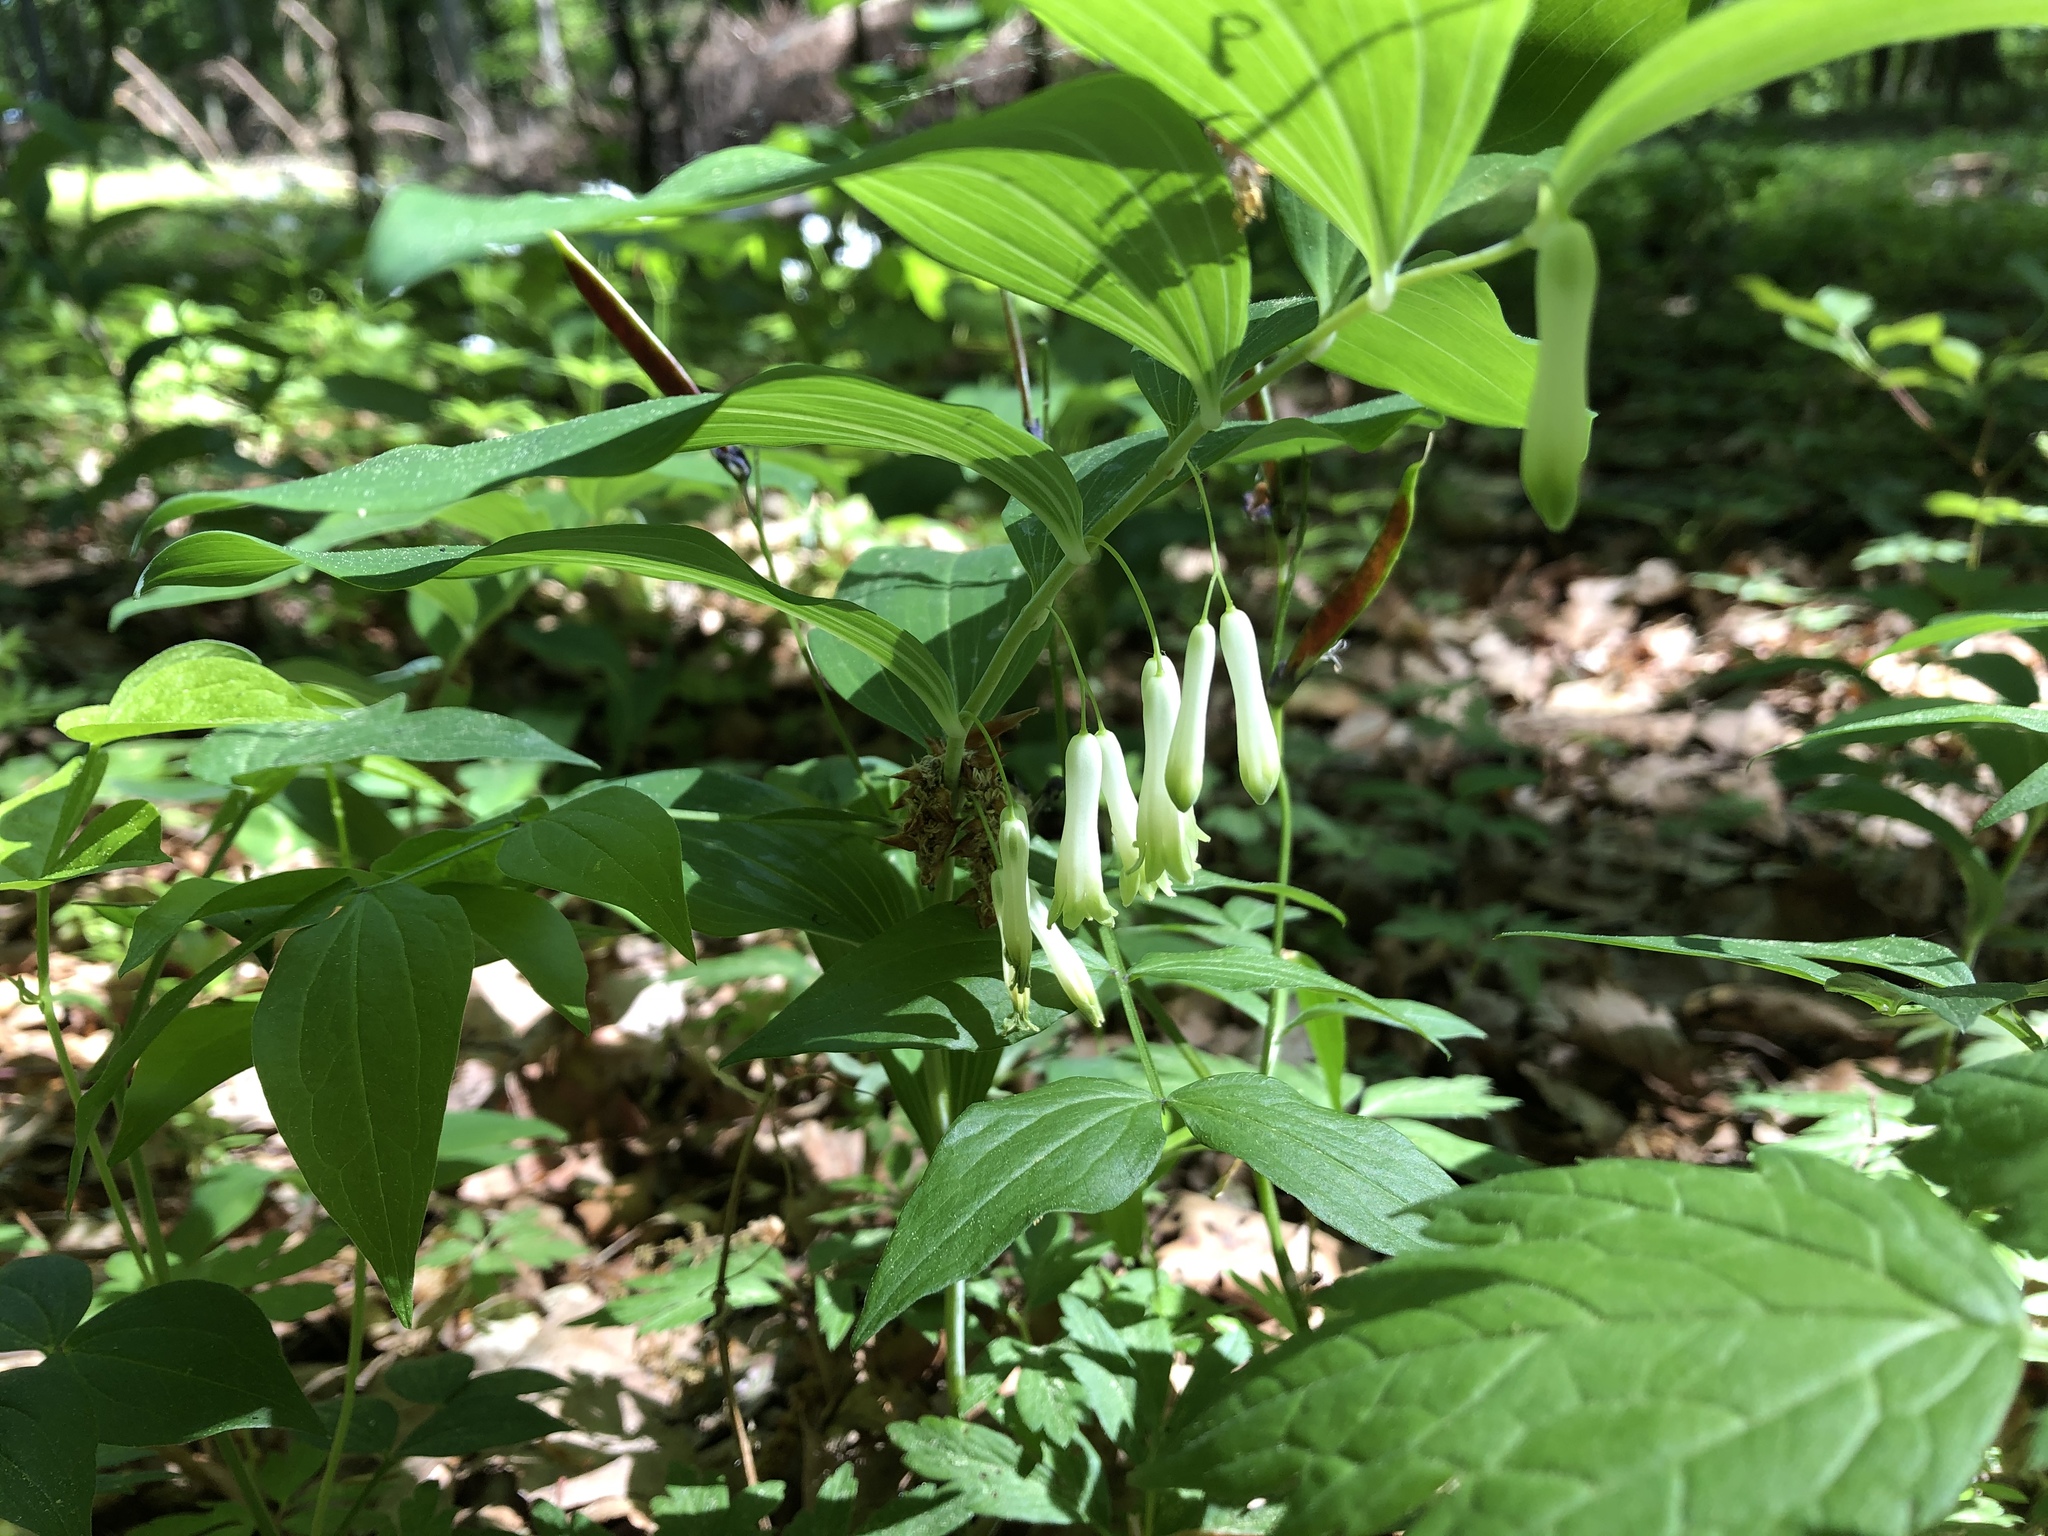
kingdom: Plantae
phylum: Tracheophyta
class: Liliopsida
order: Asparagales
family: Asparagaceae
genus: Polygonatum
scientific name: Polygonatum multiflorum
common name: Solomon's-seal
